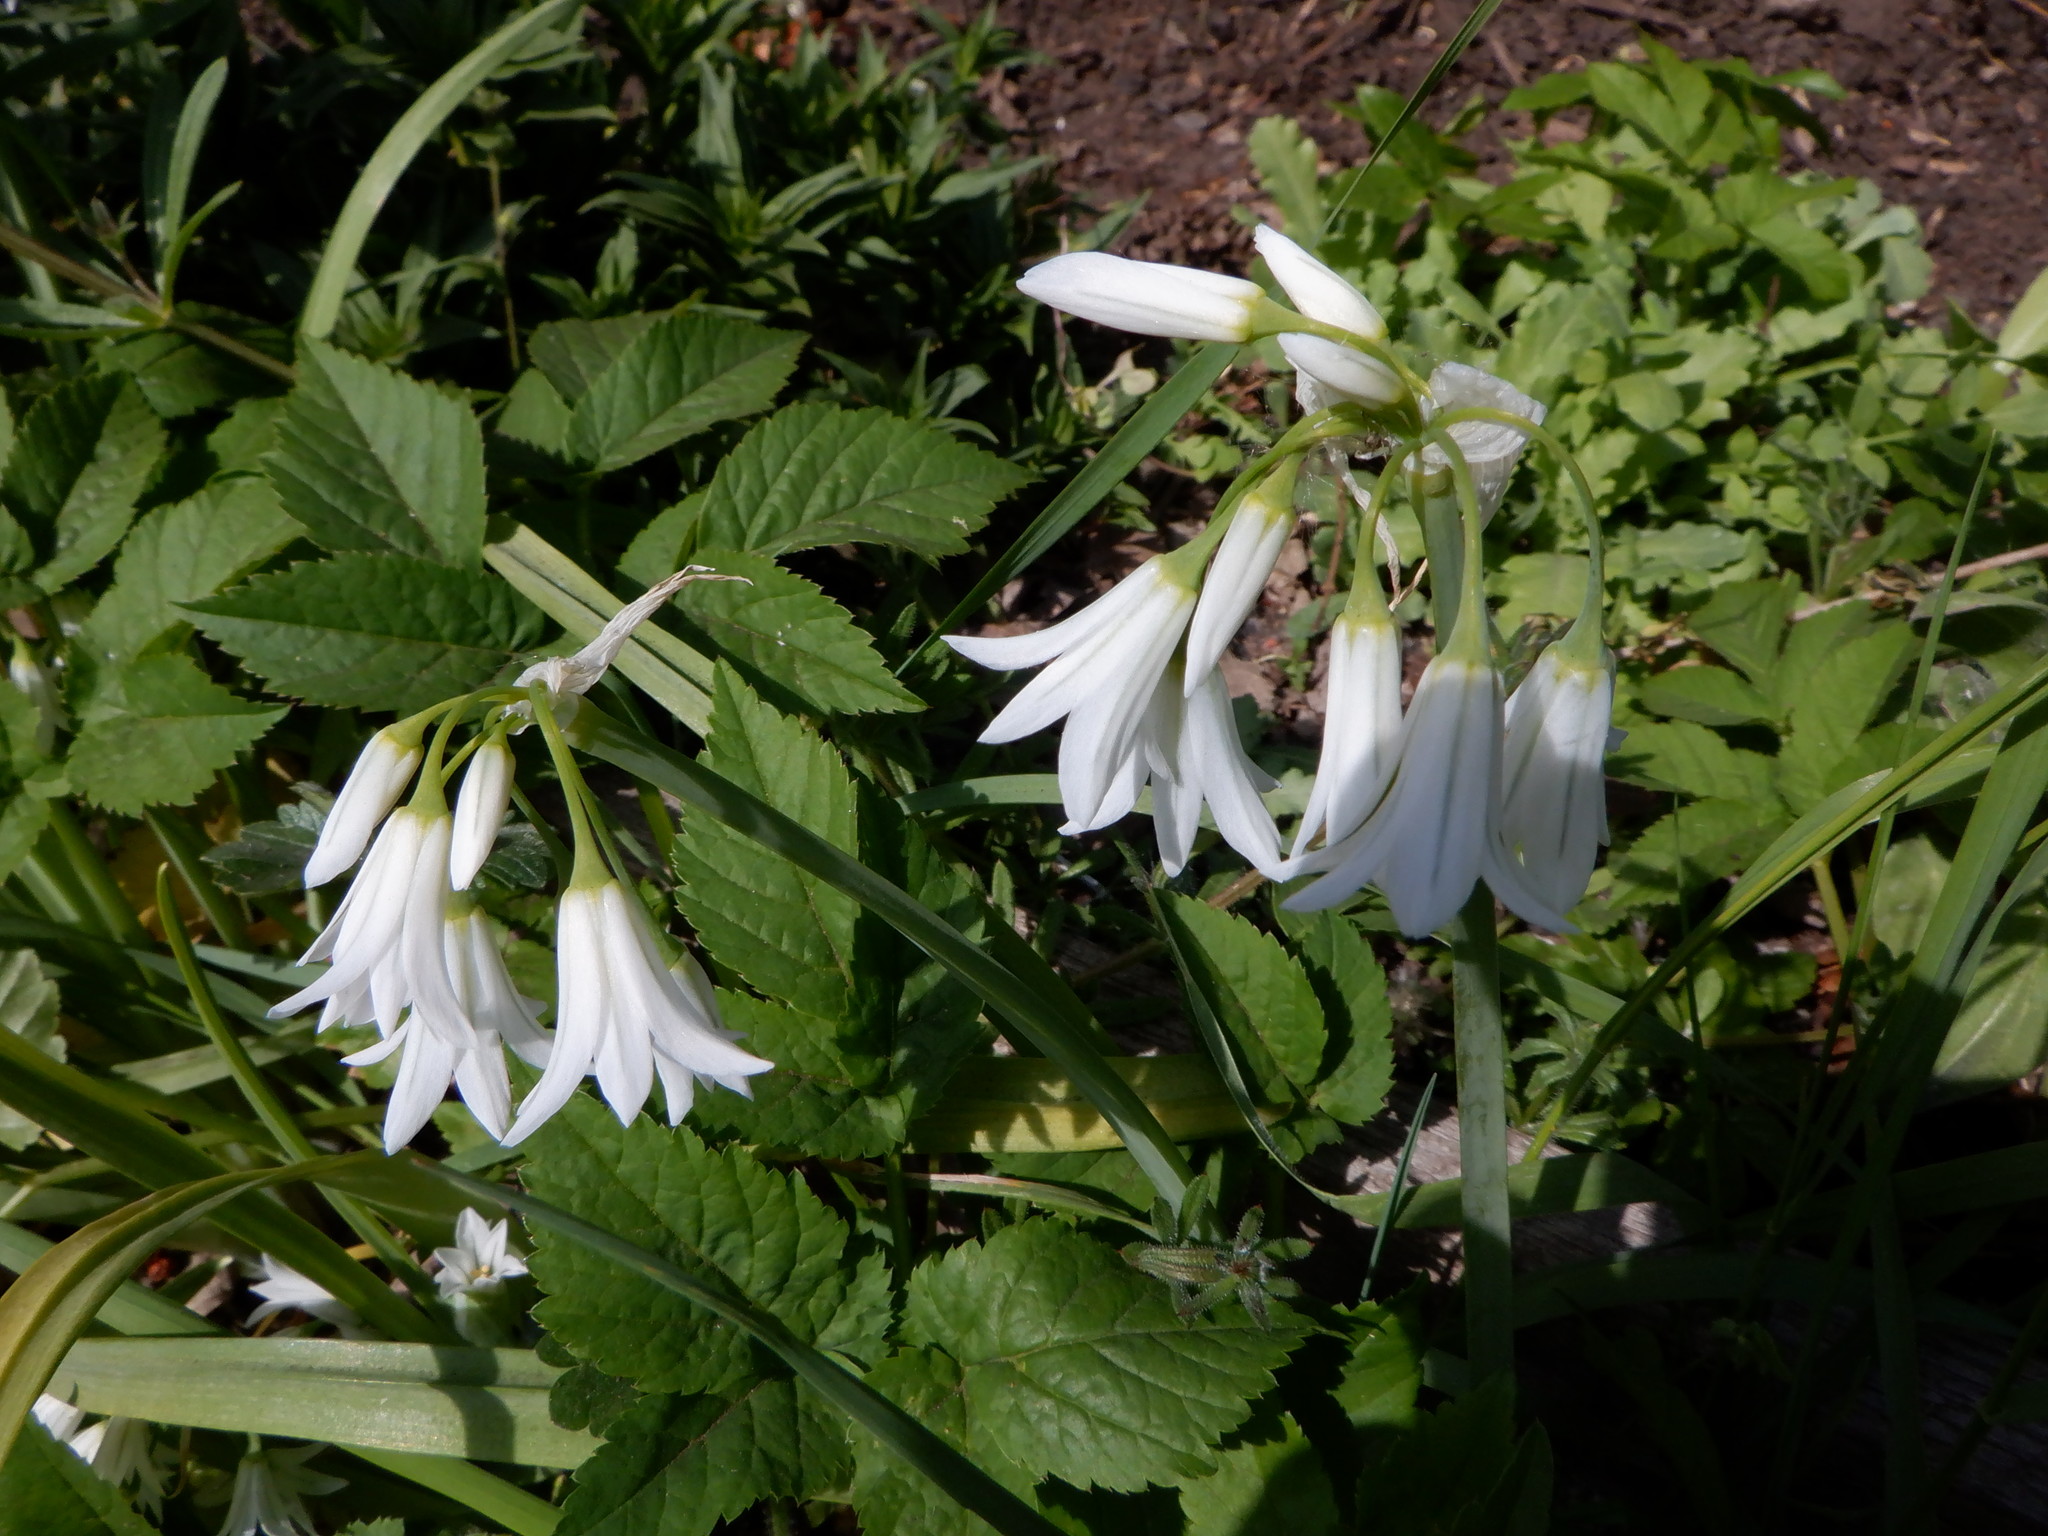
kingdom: Plantae
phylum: Tracheophyta
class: Liliopsida
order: Asparagales
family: Amaryllidaceae
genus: Allium
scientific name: Allium triquetrum
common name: Three-cornered garlic
